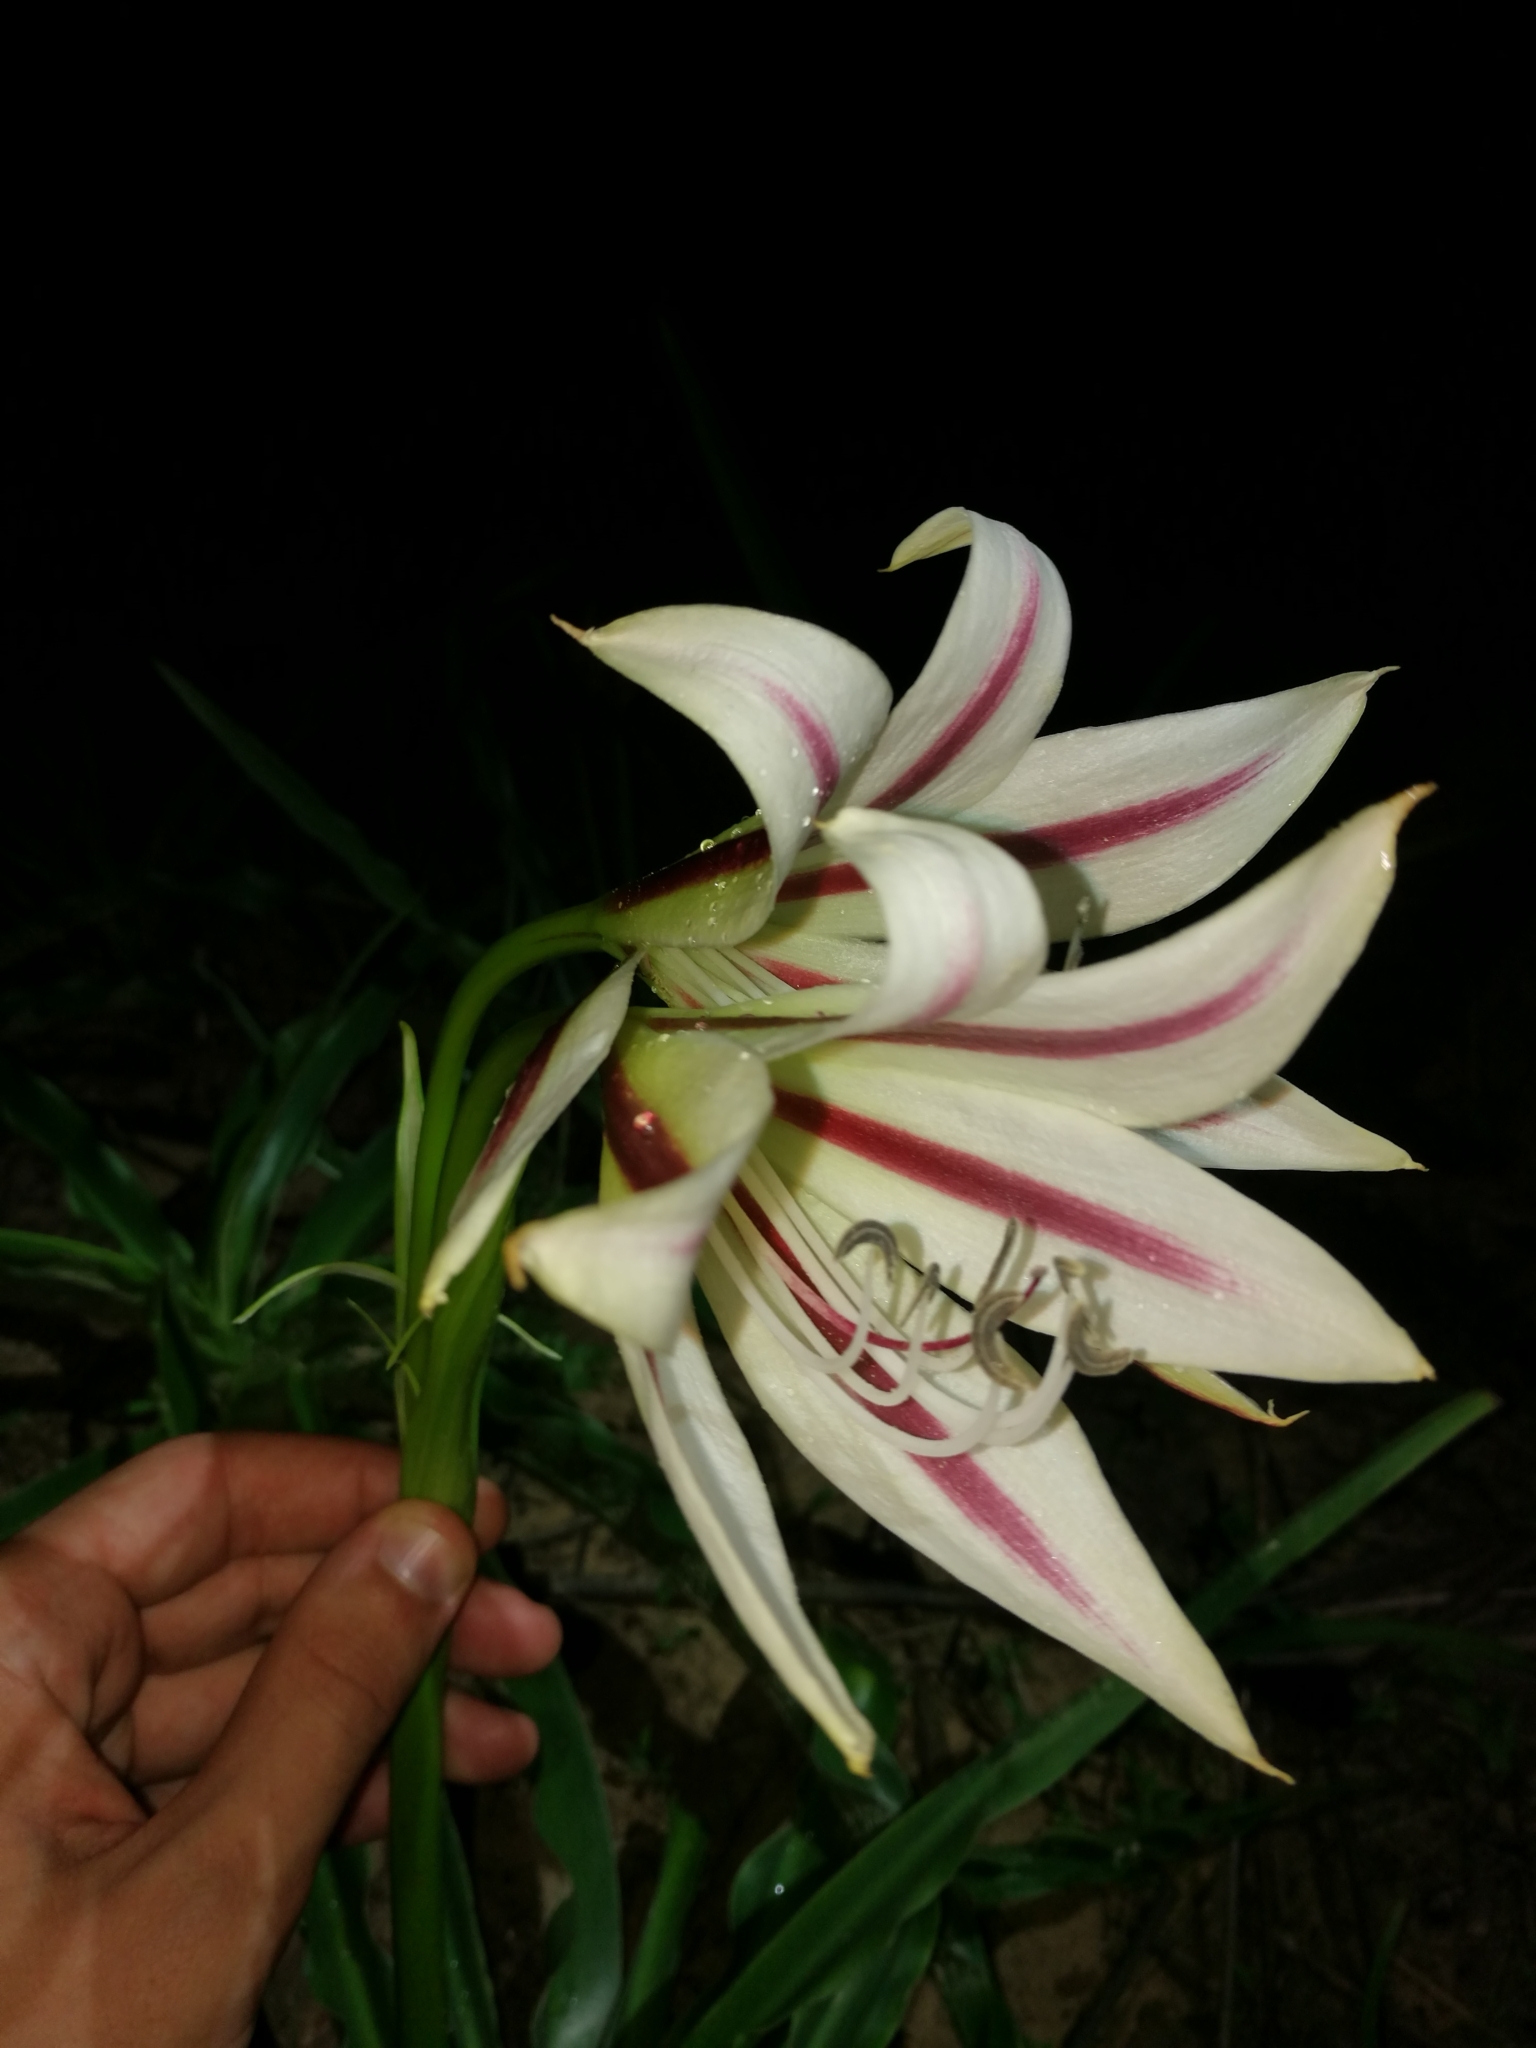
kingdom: Plantae
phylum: Tracheophyta
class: Liliopsida
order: Asparagales
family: Amaryllidaceae
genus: Crinum
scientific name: Crinum ornatum
